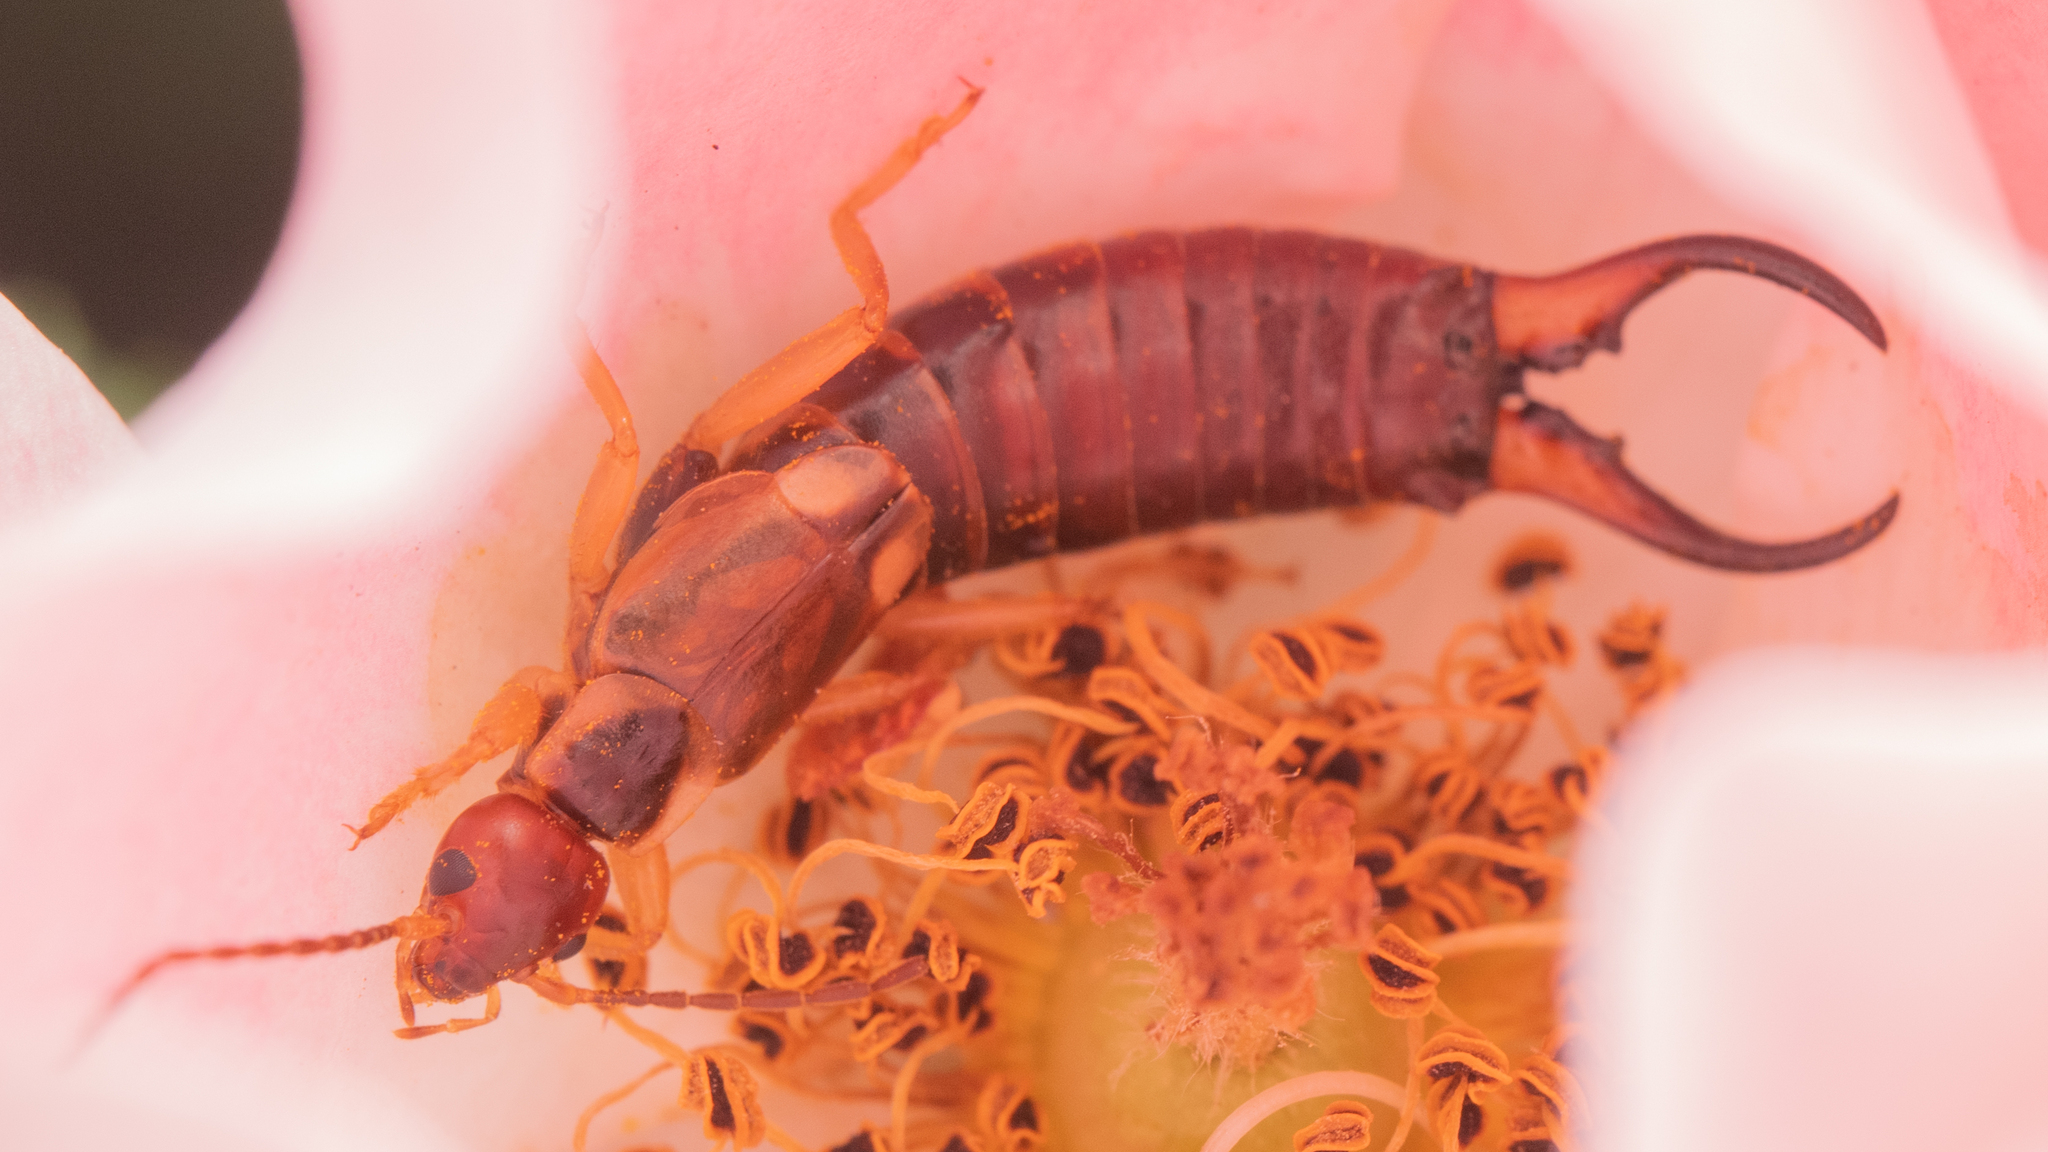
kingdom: Animalia
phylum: Arthropoda
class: Insecta
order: Dermaptera
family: Forficulidae
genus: Forficula
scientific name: Forficula
